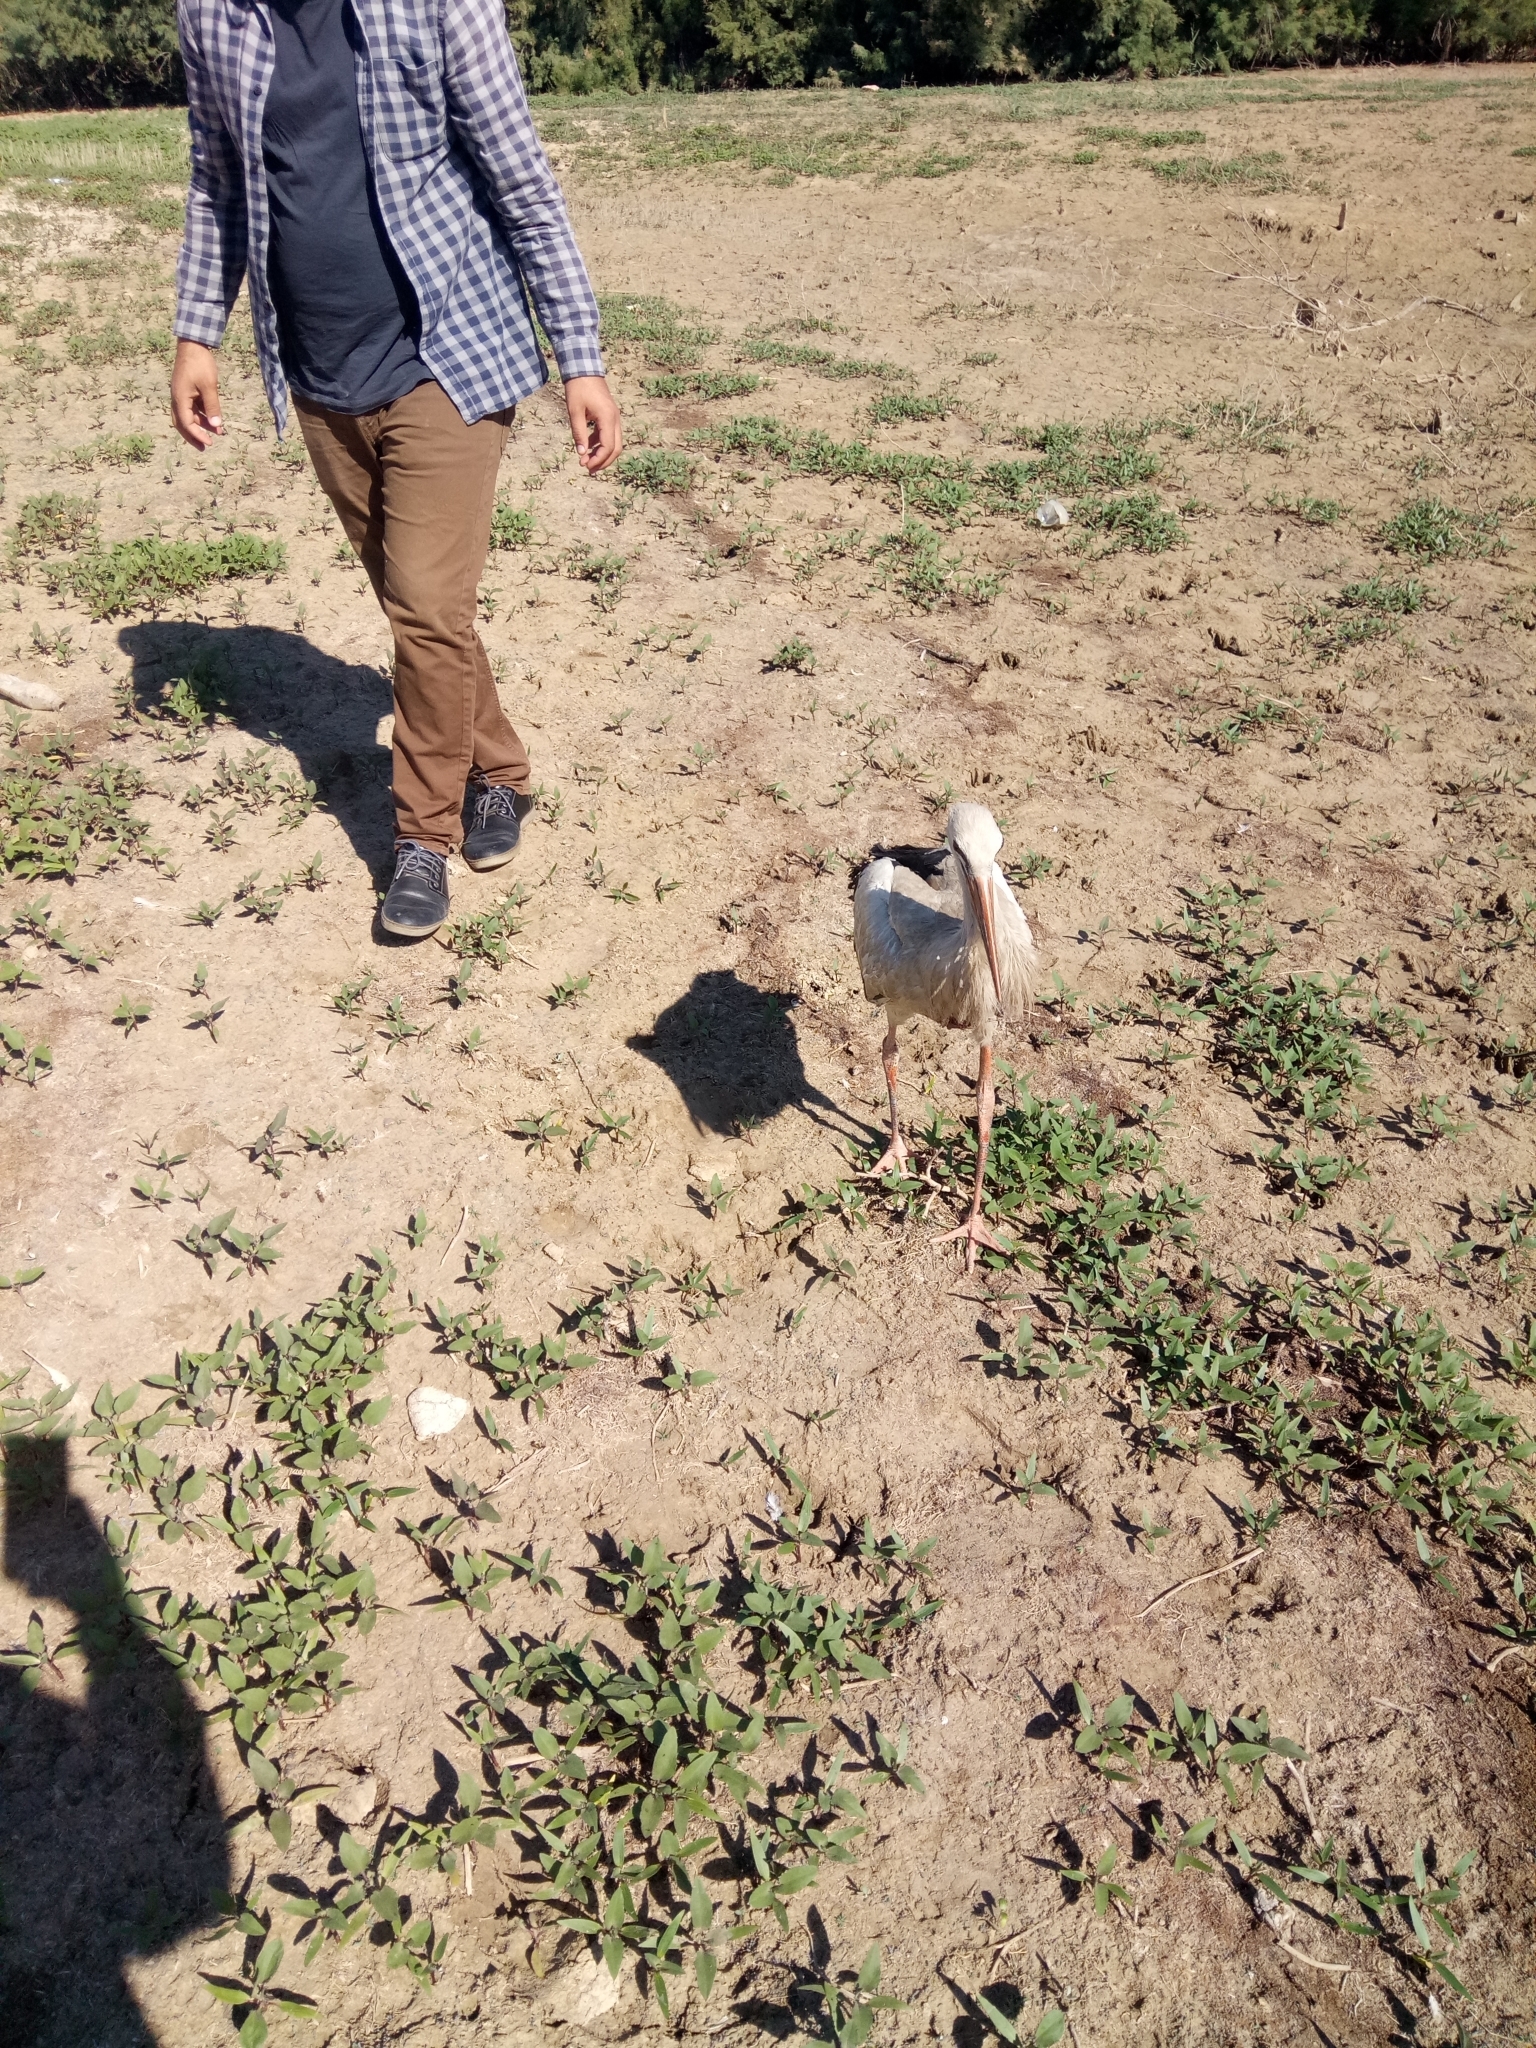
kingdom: Animalia
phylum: Chordata
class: Aves
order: Ciconiiformes
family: Ciconiidae
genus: Ciconia
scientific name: Ciconia ciconia
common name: White stork
